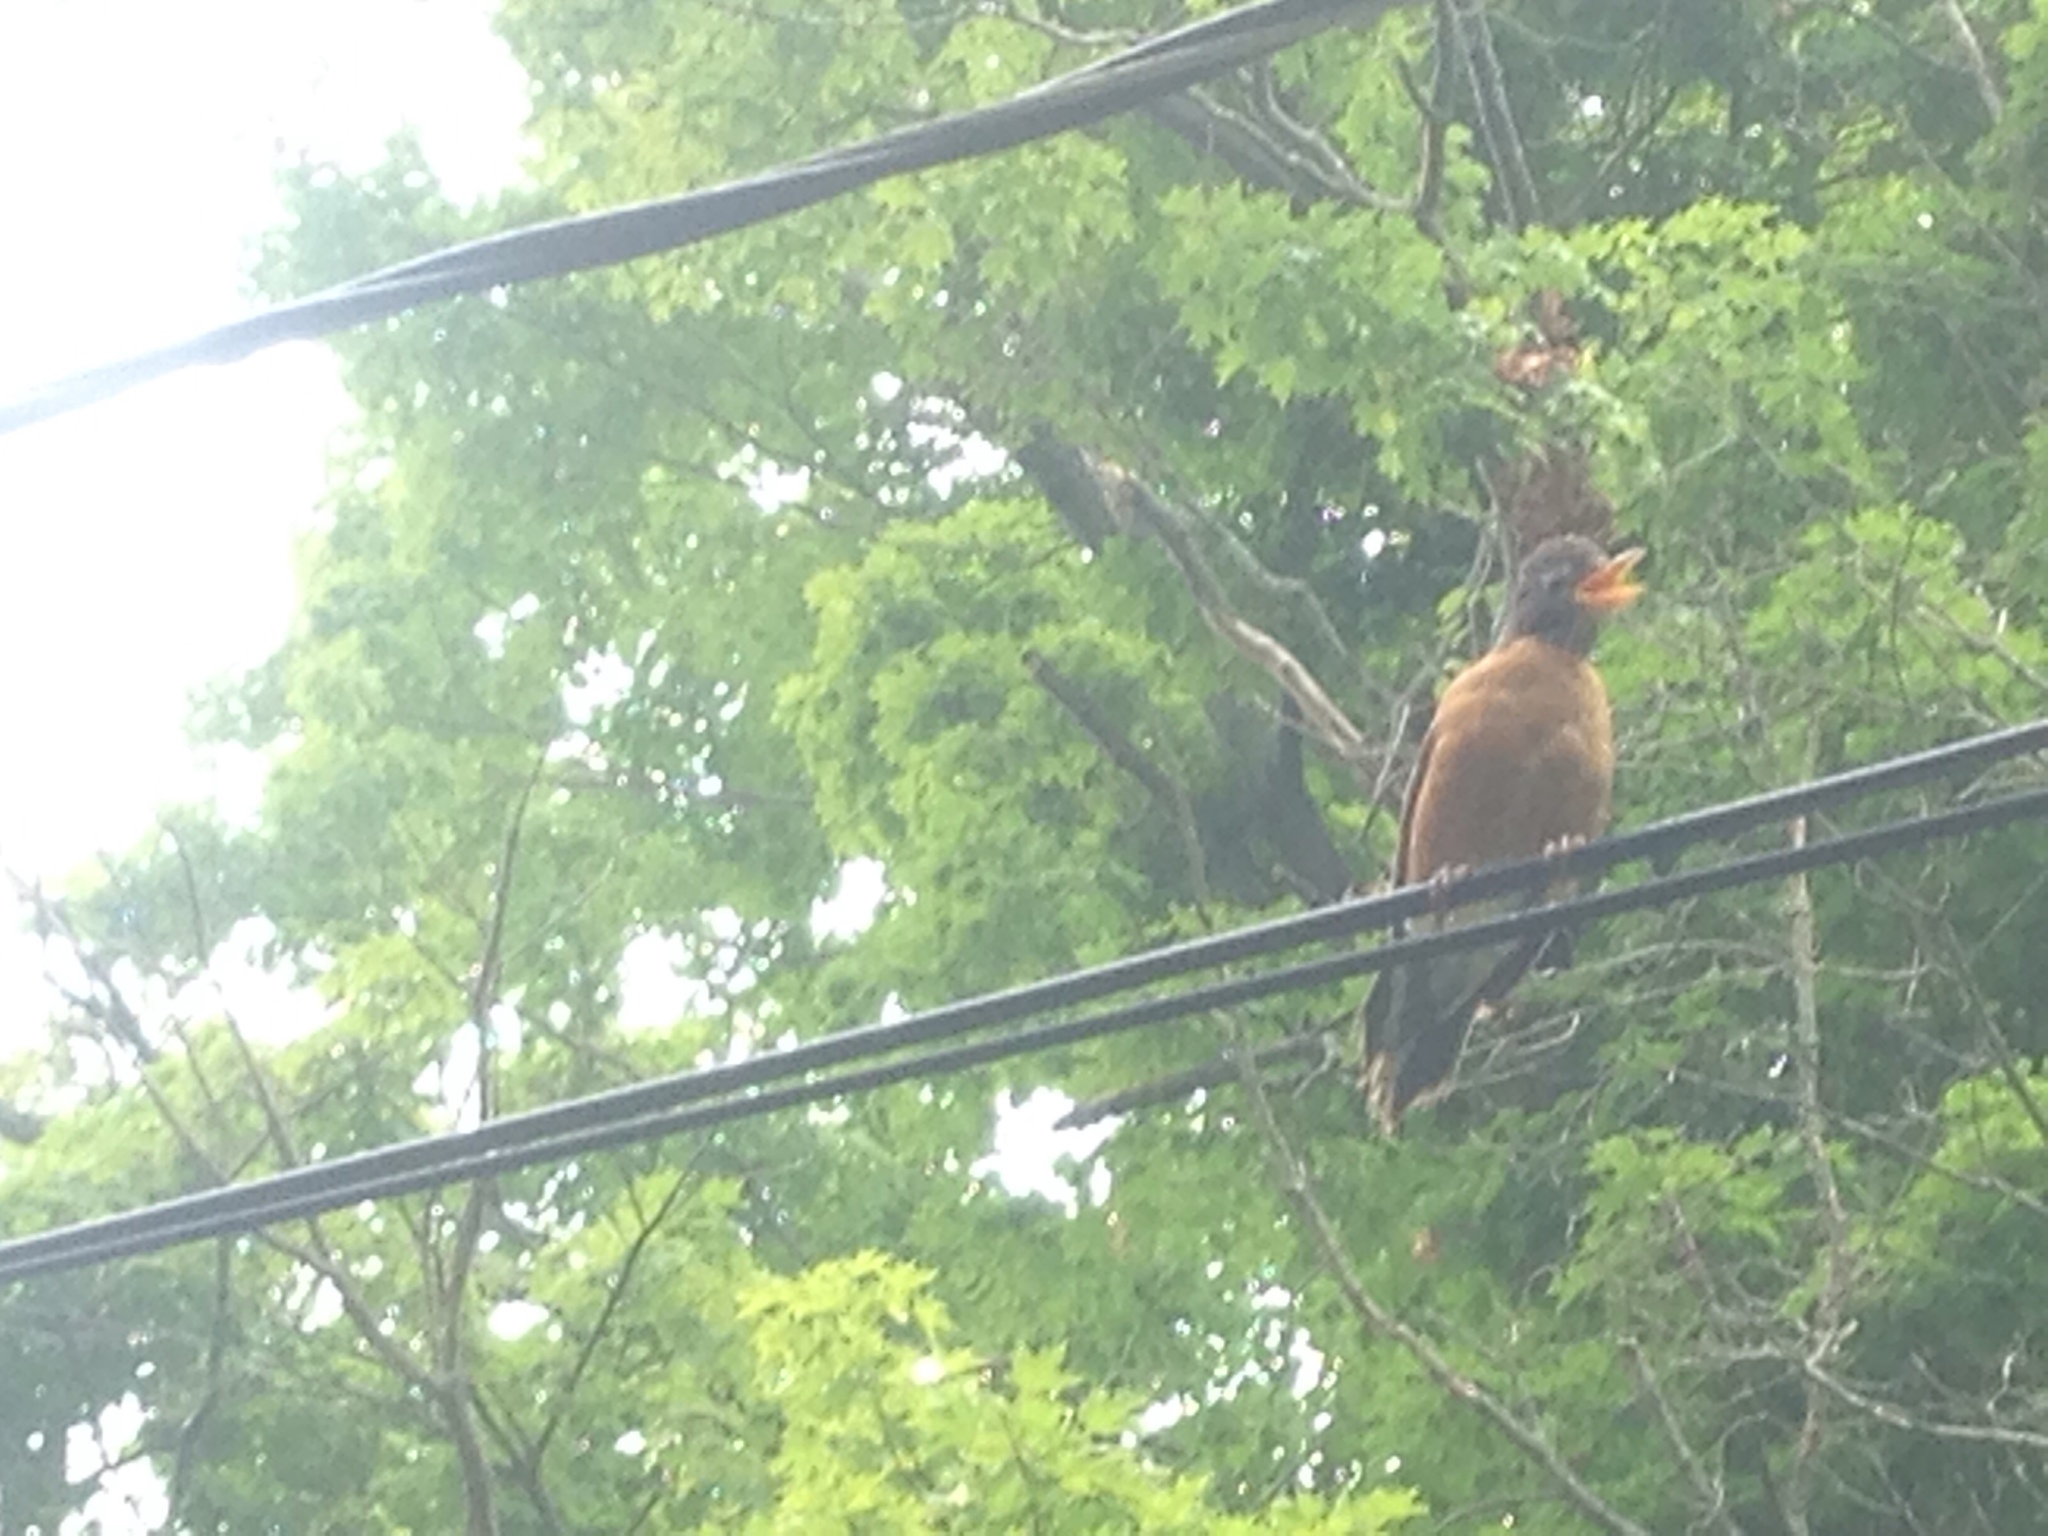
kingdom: Animalia
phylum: Chordata
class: Aves
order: Passeriformes
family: Turdidae
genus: Turdus
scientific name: Turdus migratorius
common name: American robin
